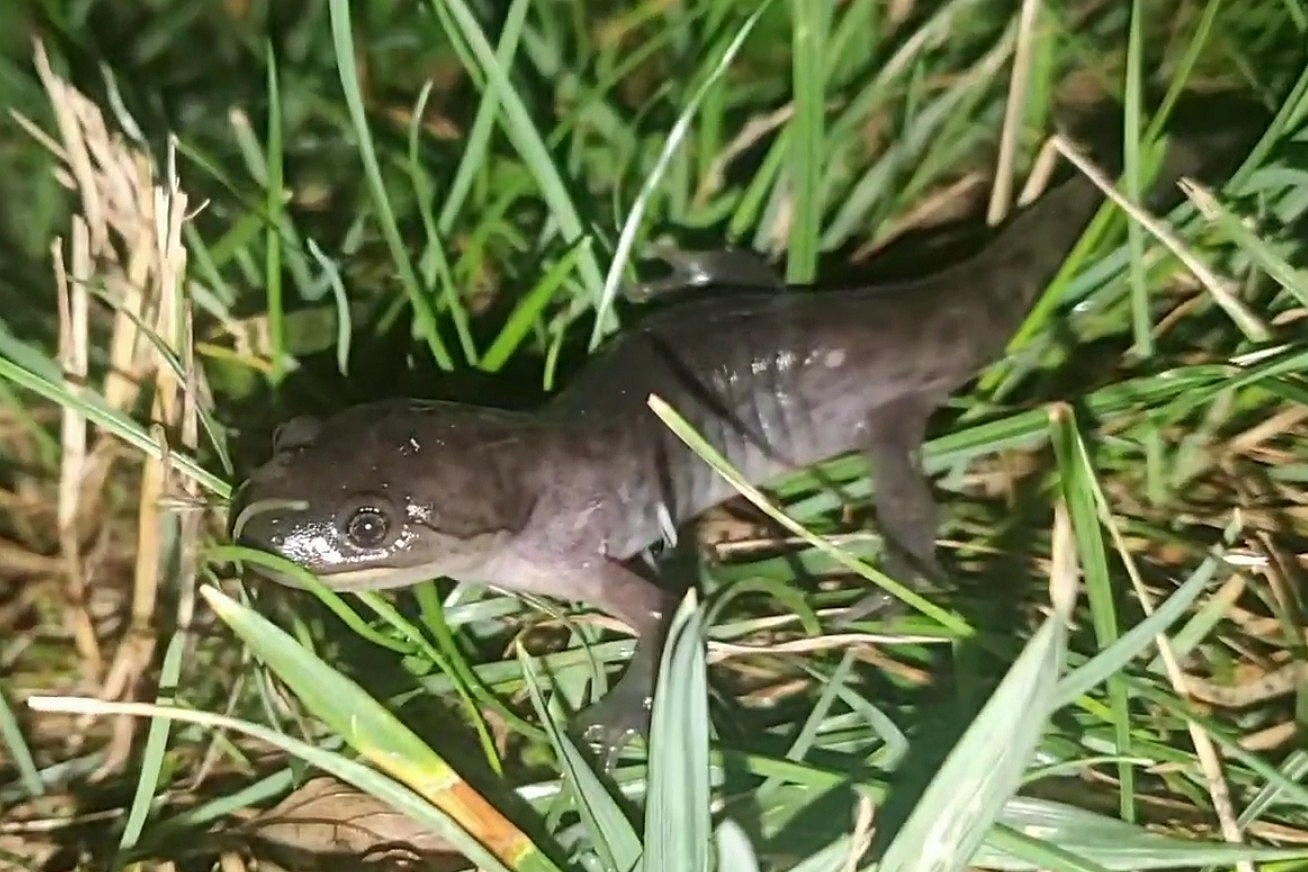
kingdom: Animalia
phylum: Chordata
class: Amphibia
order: Caudata
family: Ambystomatidae
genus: Ambystoma
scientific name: Ambystoma tigrinum
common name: Tiger salamander
